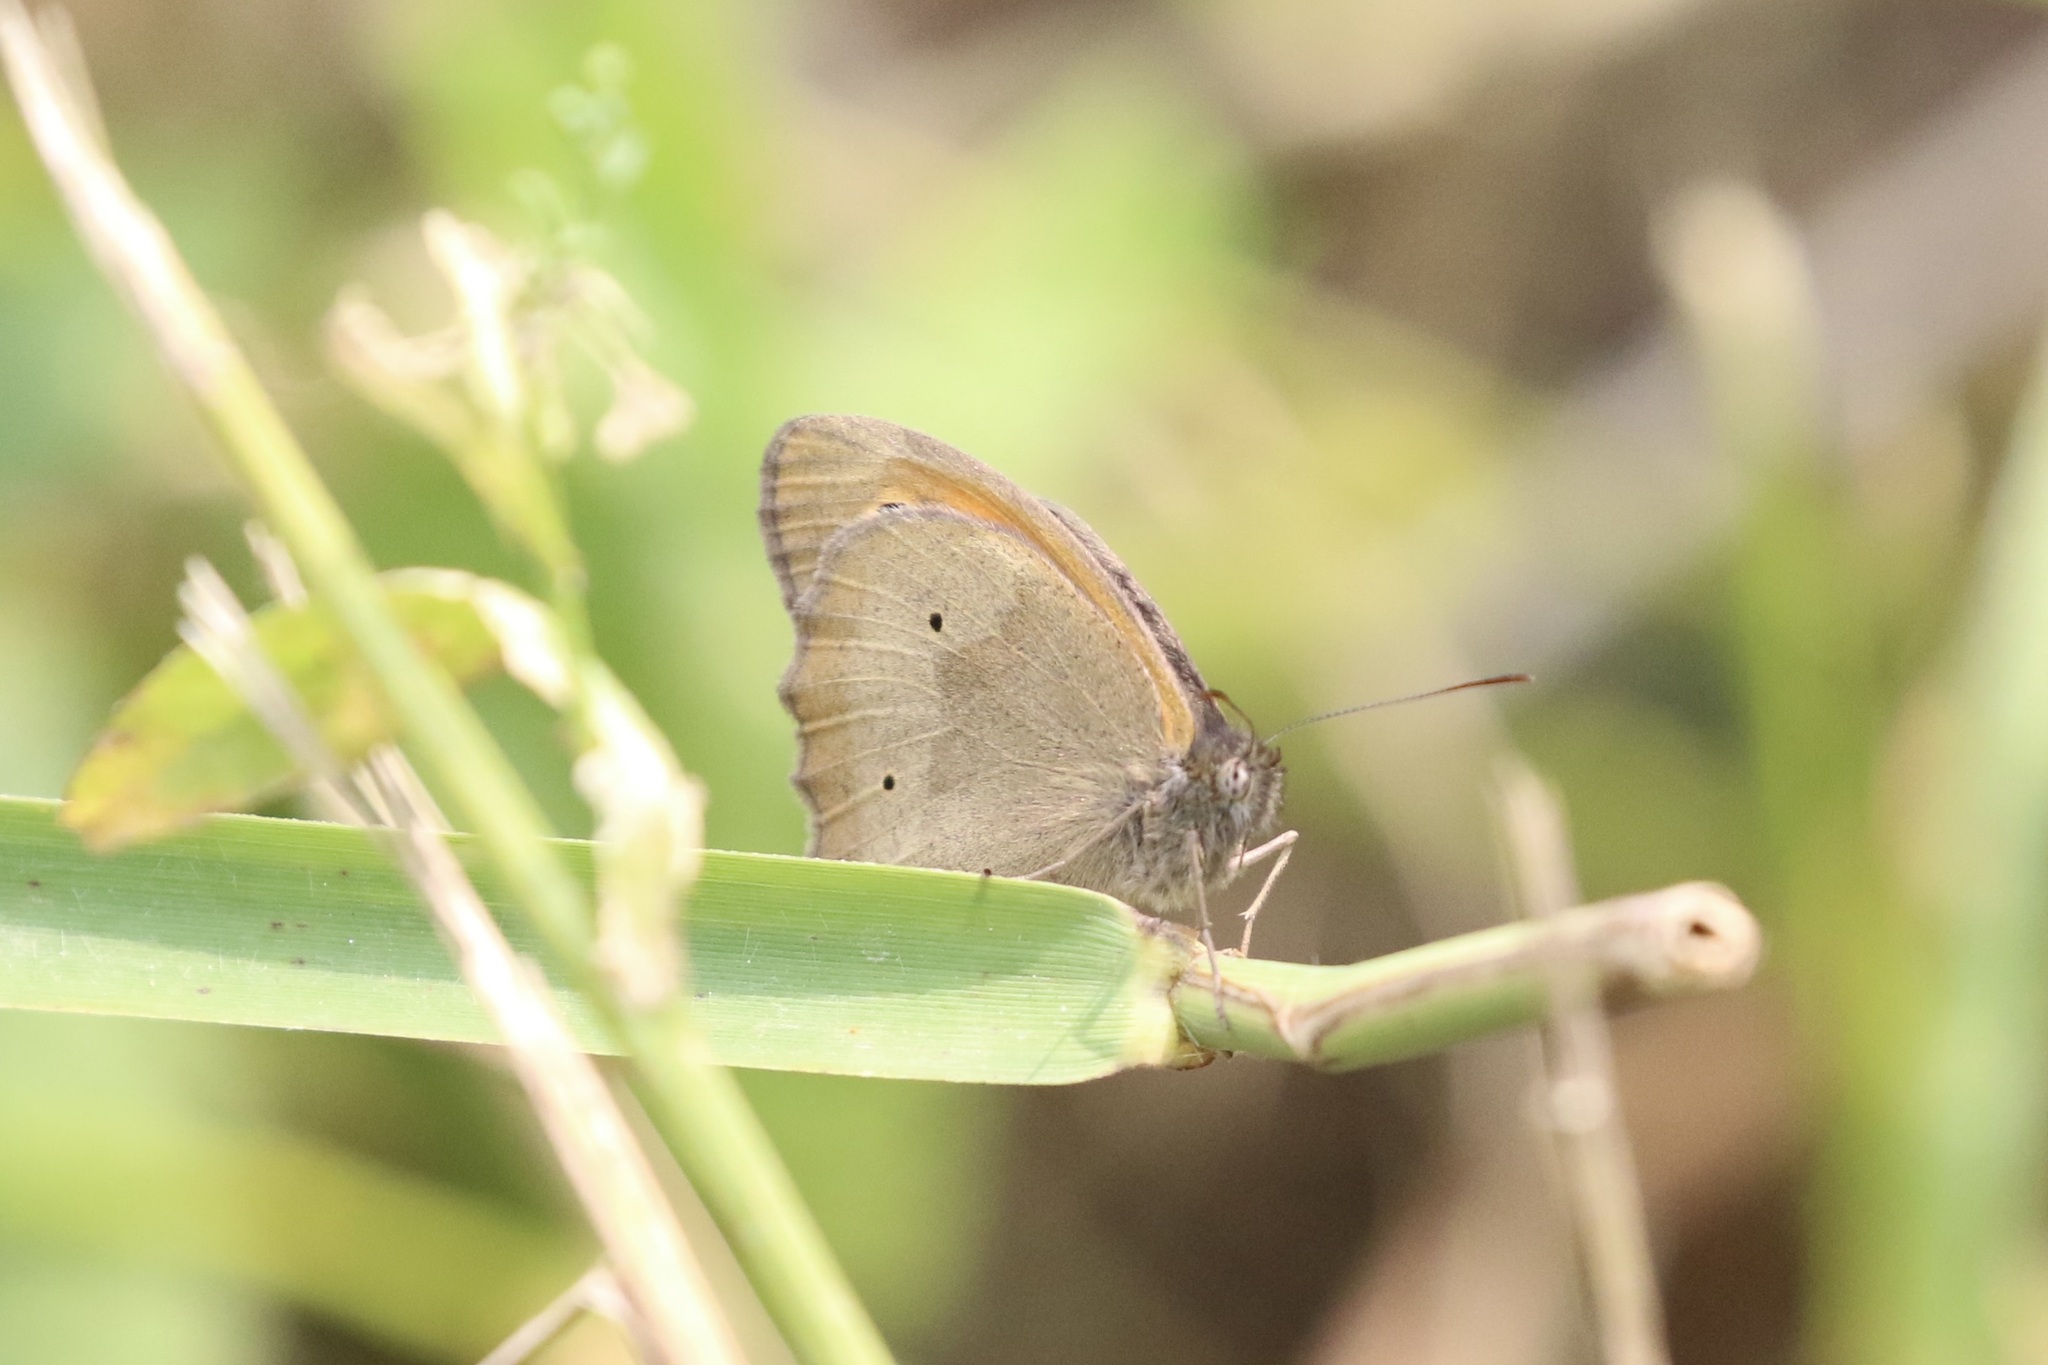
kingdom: Animalia
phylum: Arthropoda
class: Insecta
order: Lepidoptera
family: Nymphalidae
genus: Maniola
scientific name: Maniola jurtina
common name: Meadow brown
